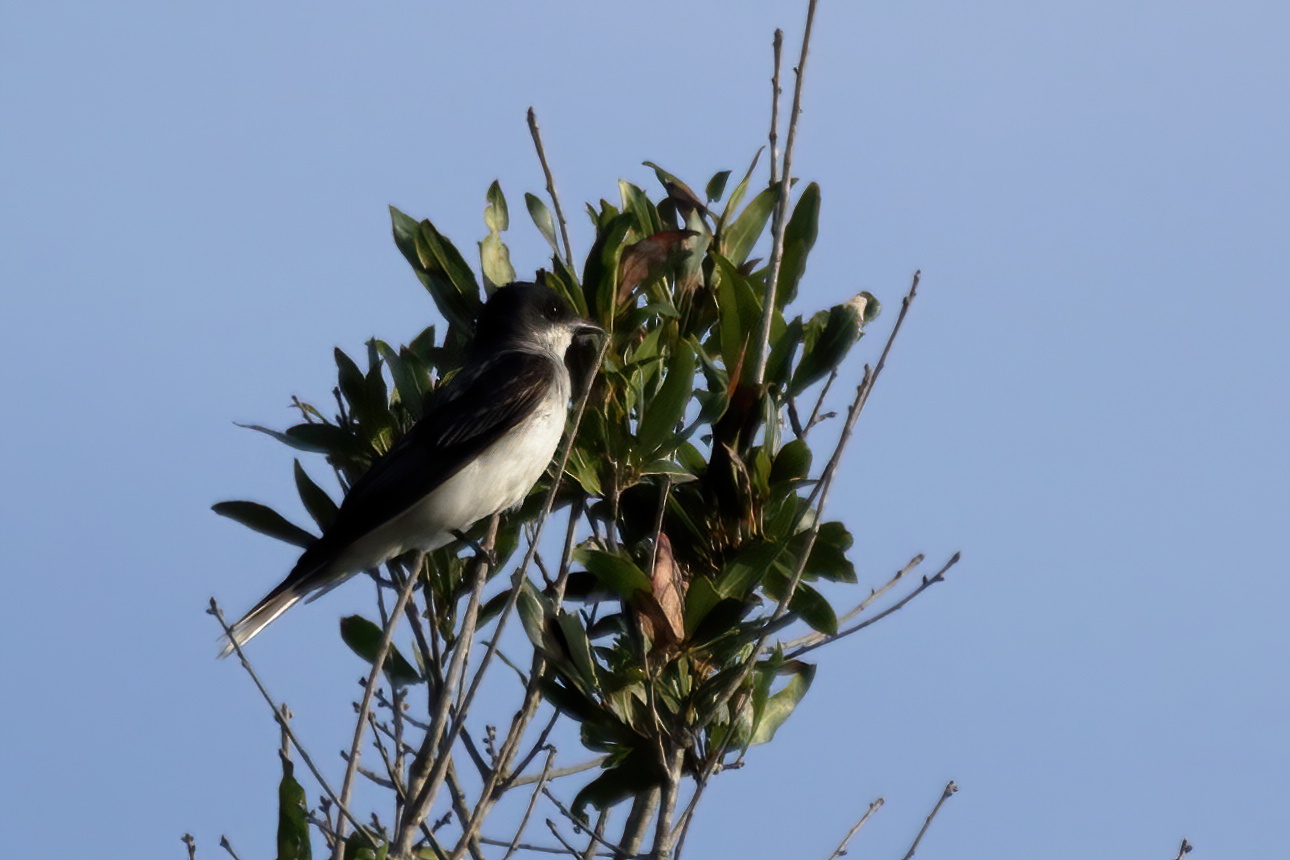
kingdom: Animalia
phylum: Chordata
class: Aves
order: Passeriformes
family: Tyrannidae
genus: Tyrannus
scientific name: Tyrannus tyrannus
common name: Eastern kingbird
